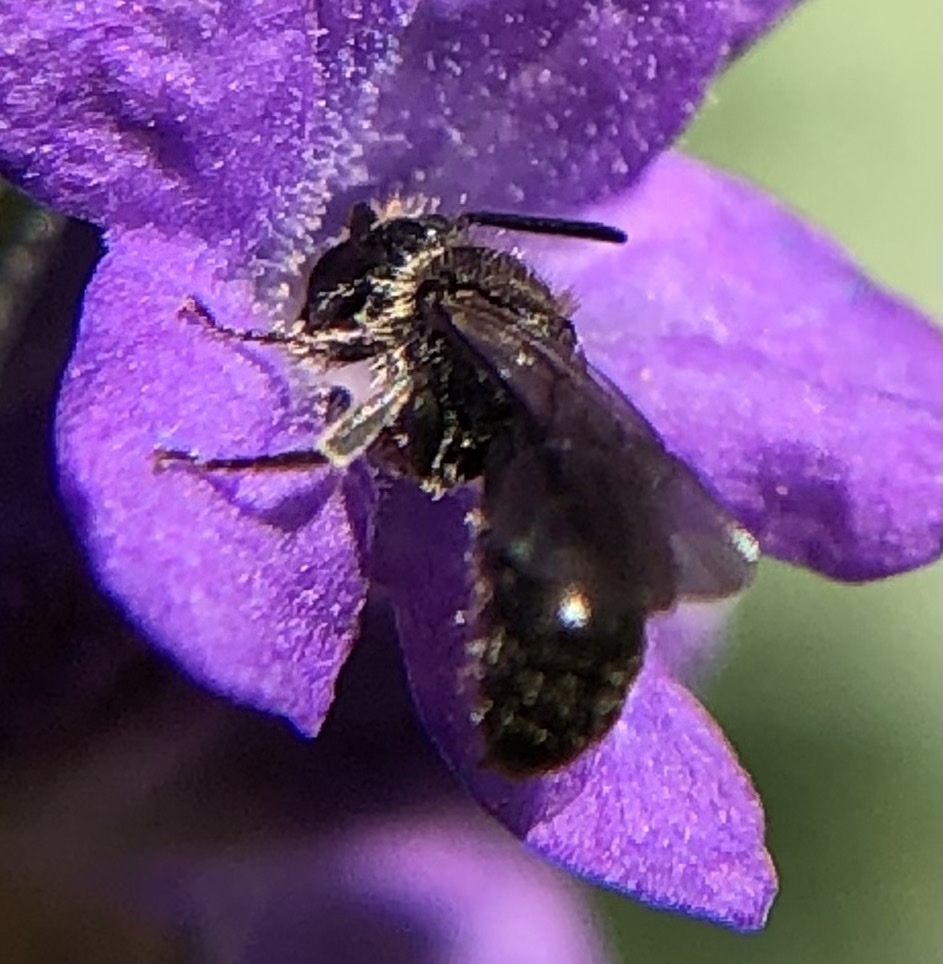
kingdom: Animalia
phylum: Arthropoda
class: Insecta
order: Hymenoptera
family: Megachilidae
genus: Chelostoma
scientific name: Chelostoma campanularum
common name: Small scissor bee
